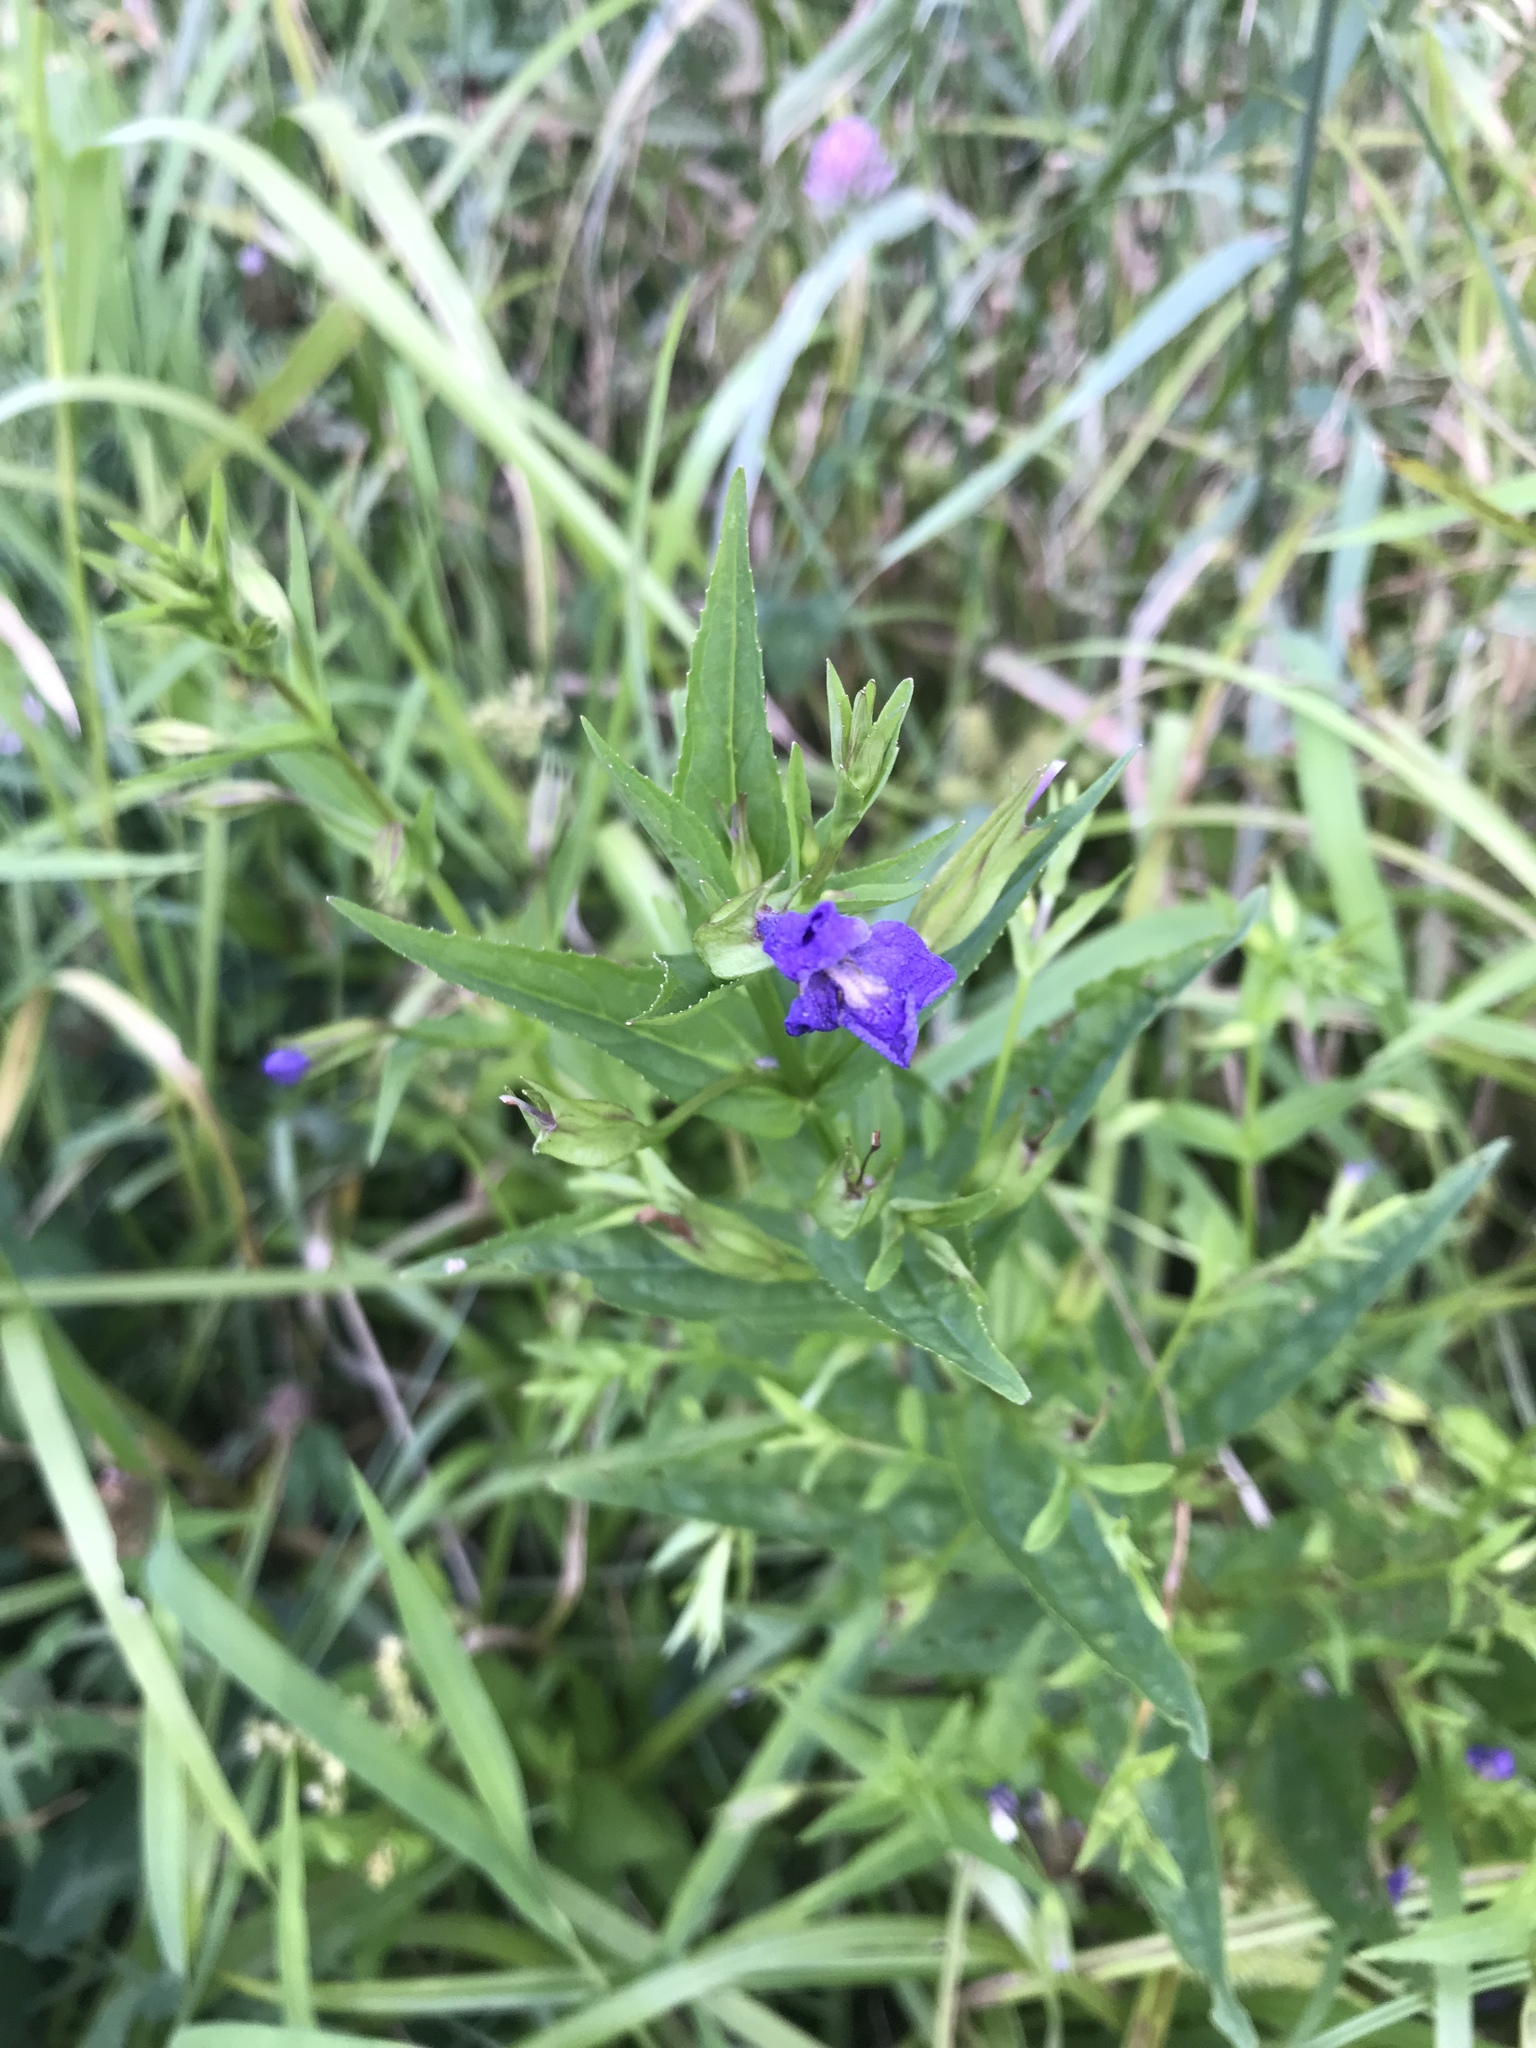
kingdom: Plantae
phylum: Tracheophyta
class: Magnoliopsida
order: Lamiales
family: Lamiaceae
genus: Scutellaria
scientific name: Scutellaria galericulata
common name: Skullcap
